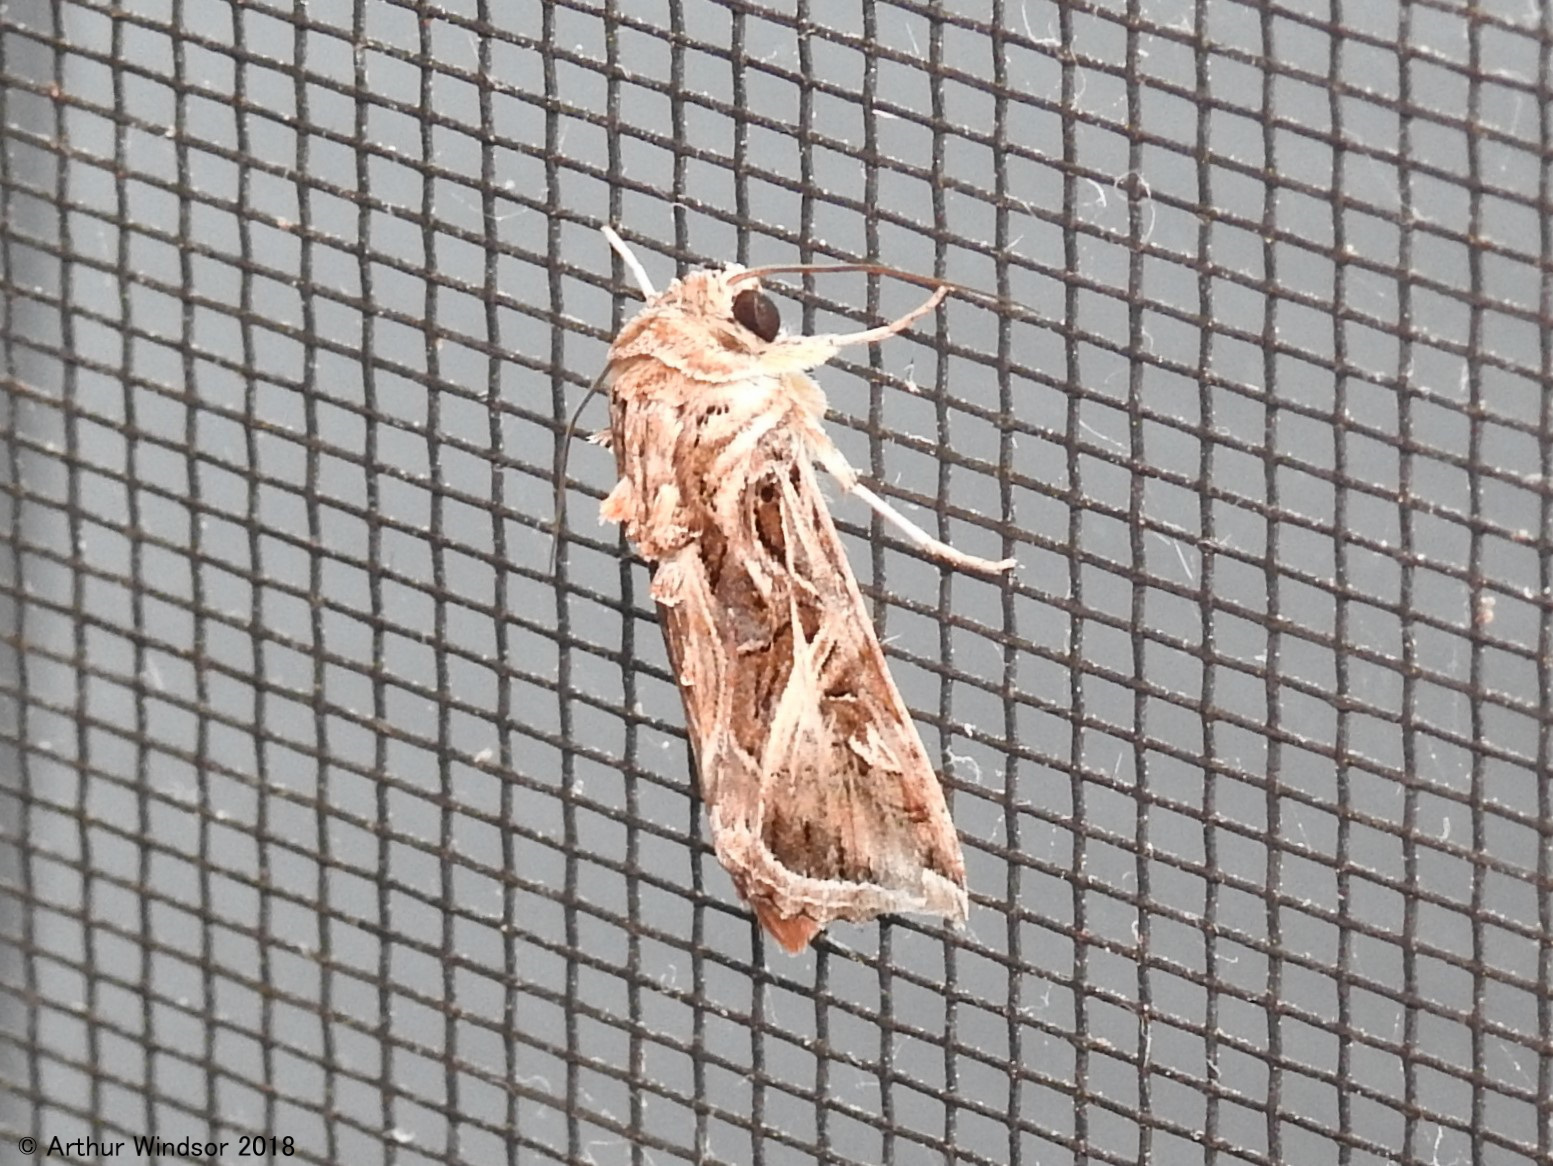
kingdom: Animalia
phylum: Arthropoda
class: Insecta
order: Lepidoptera
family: Noctuidae
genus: Spodoptera
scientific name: Spodoptera pulchella
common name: Caribbean armyworm moth
